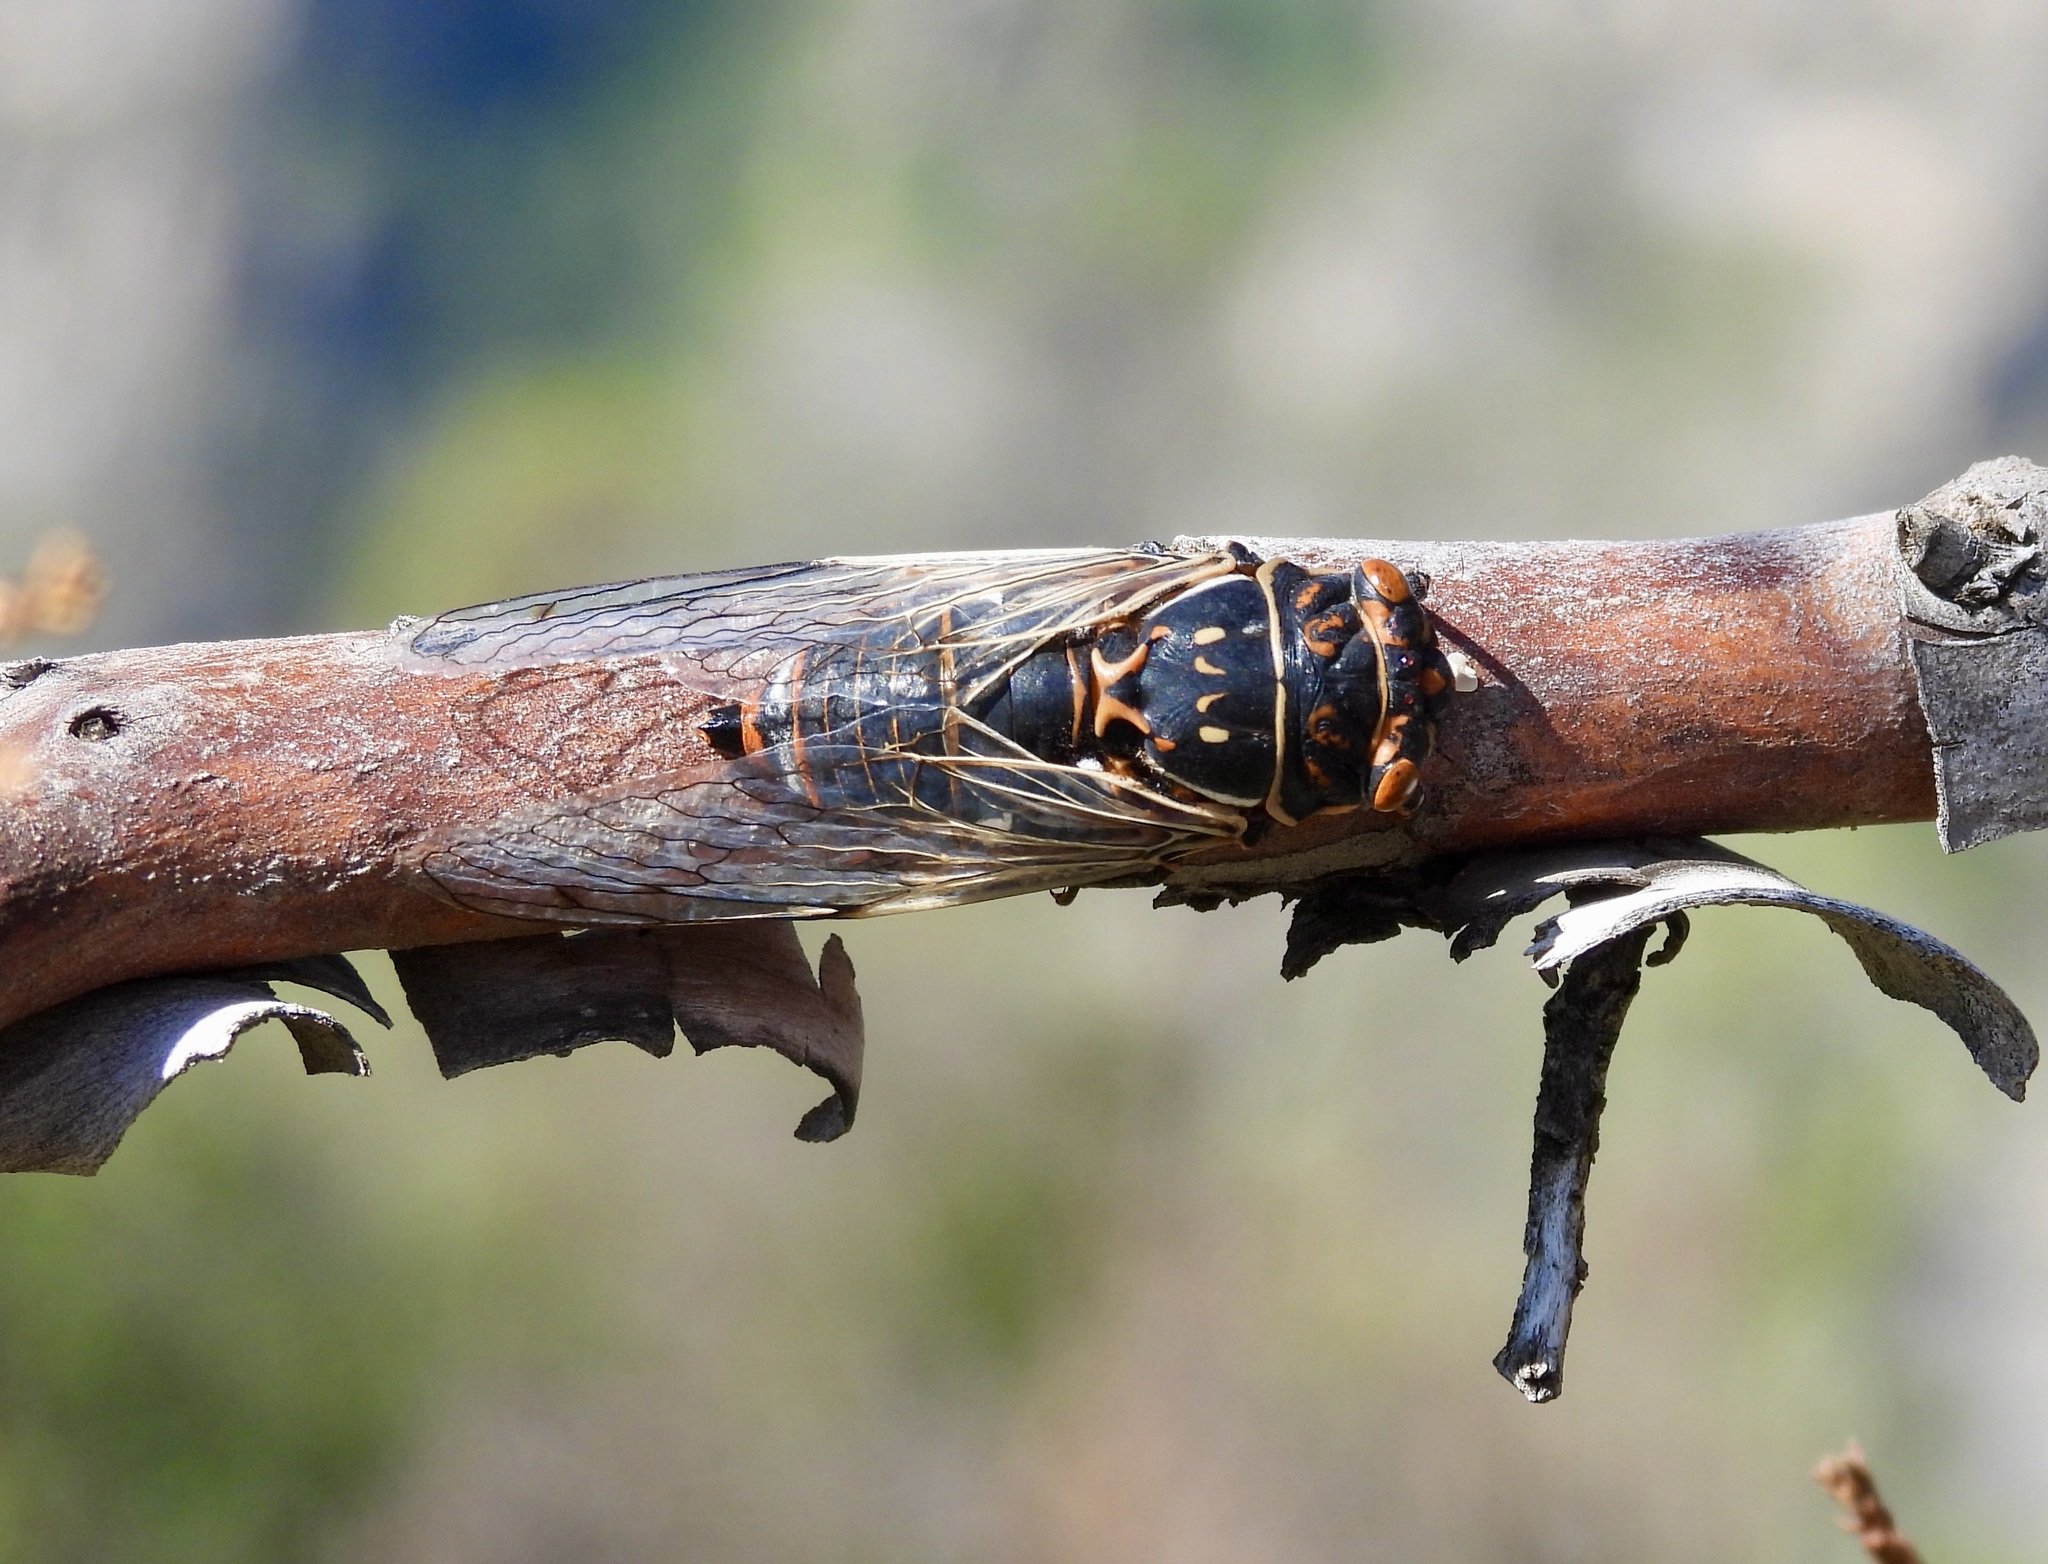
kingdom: Animalia
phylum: Arthropoda
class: Insecta
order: Hemiptera
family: Cicadidae
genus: Hadoa
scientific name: Hadoa duryi
